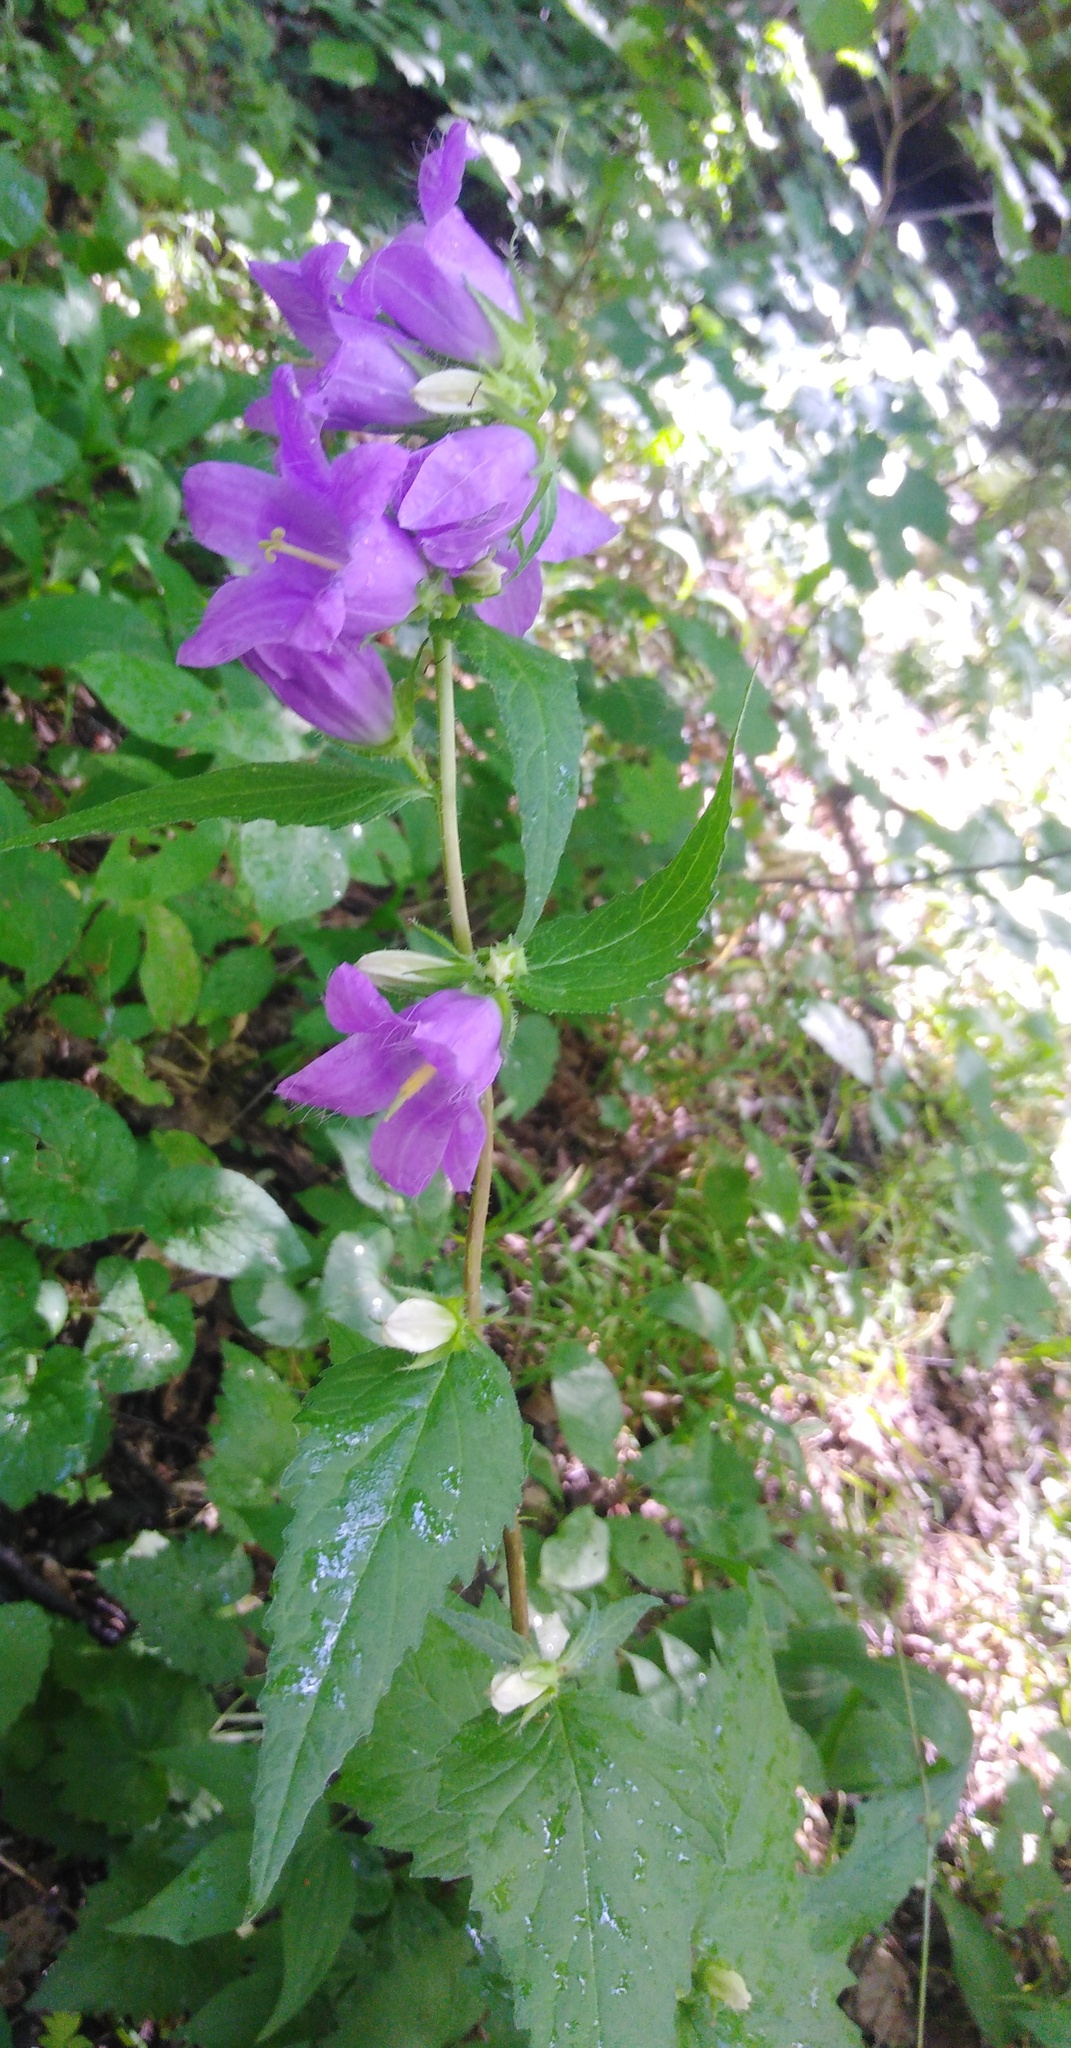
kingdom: Plantae
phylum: Tracheophyta
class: Magnoliopsida
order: Asterales
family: Campanulaceae
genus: Campanula
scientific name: Campanula trachelium
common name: Nettle-leaved bellflower
